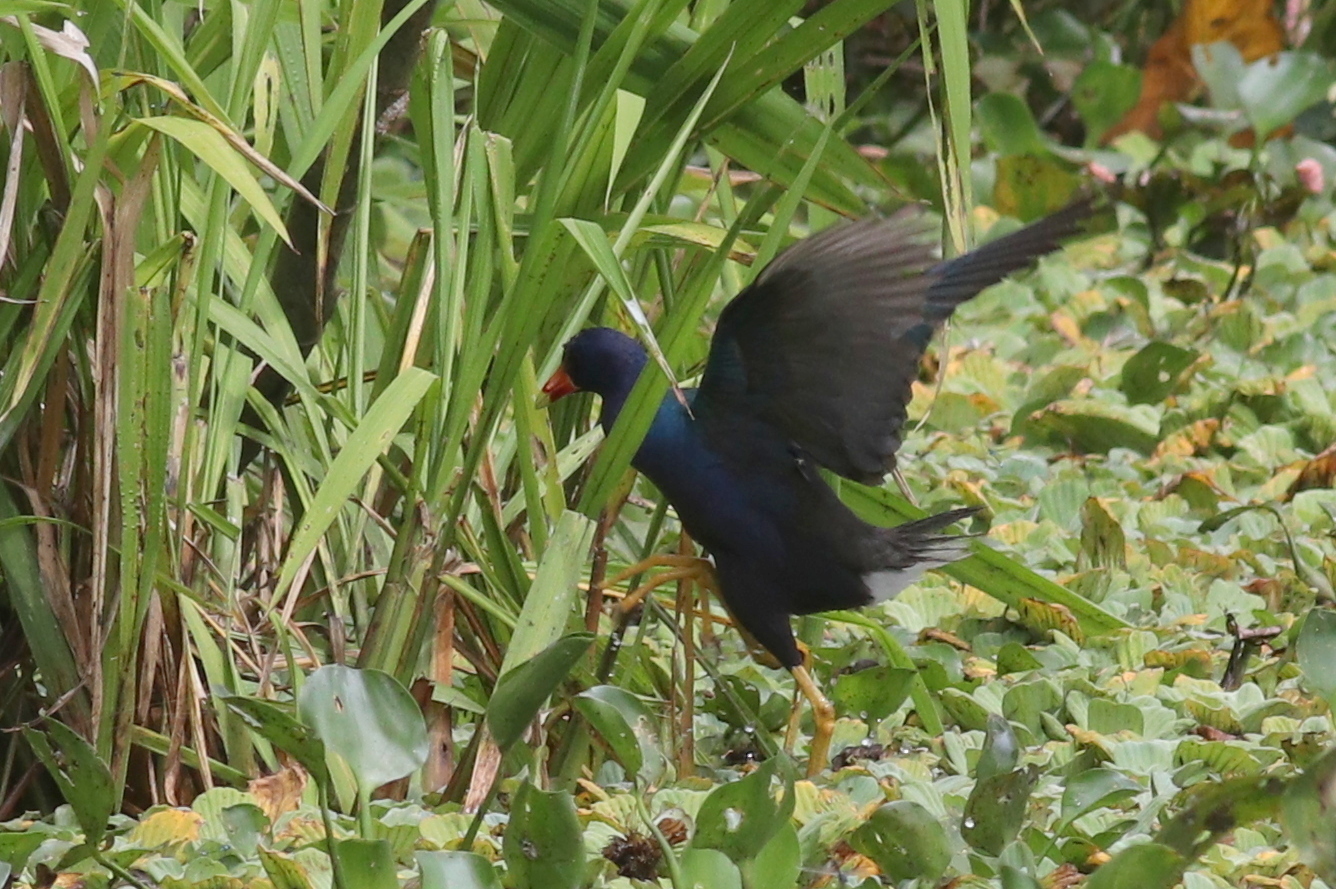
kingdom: Animalia
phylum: Chordata
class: Aves
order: Gruiformes
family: Rallidae
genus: Porphyrio
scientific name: Porphyrio martinica
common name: Purple gallinule
